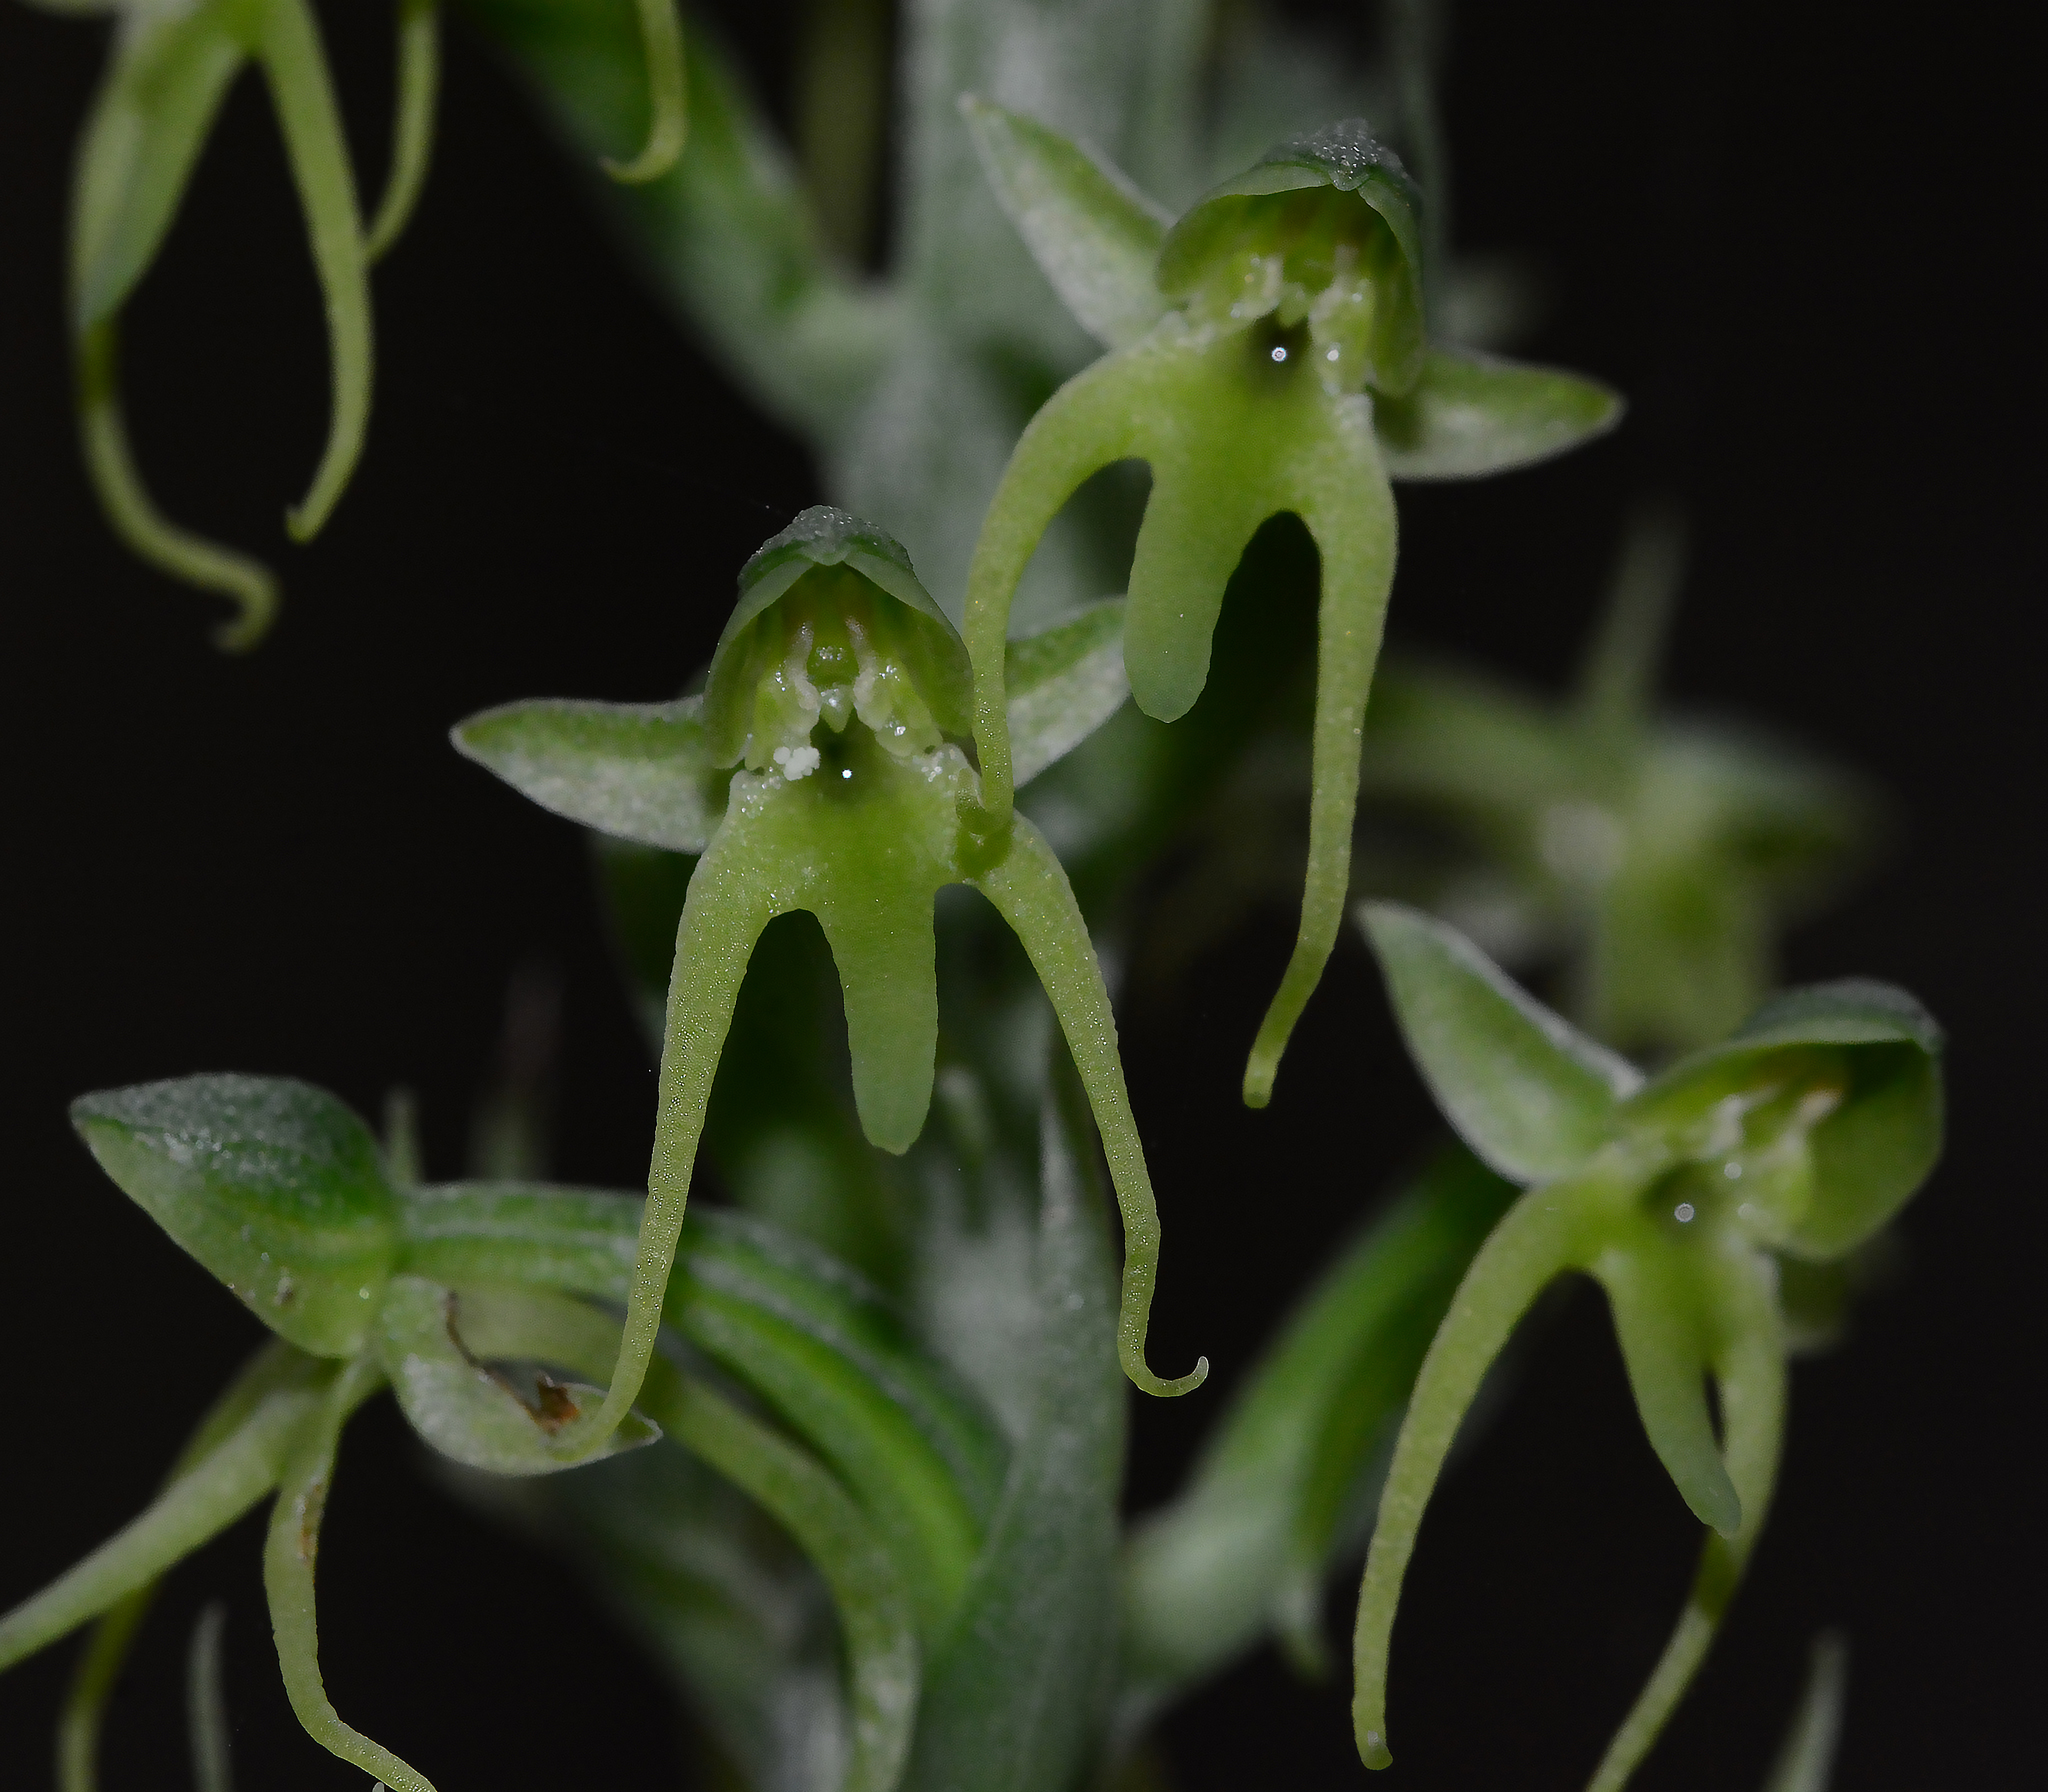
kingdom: Plantae
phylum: Tracheophyta
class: Liliopsida
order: Asparagales
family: Orchidaceae
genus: Habenaria
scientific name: Habenaria furcifera
